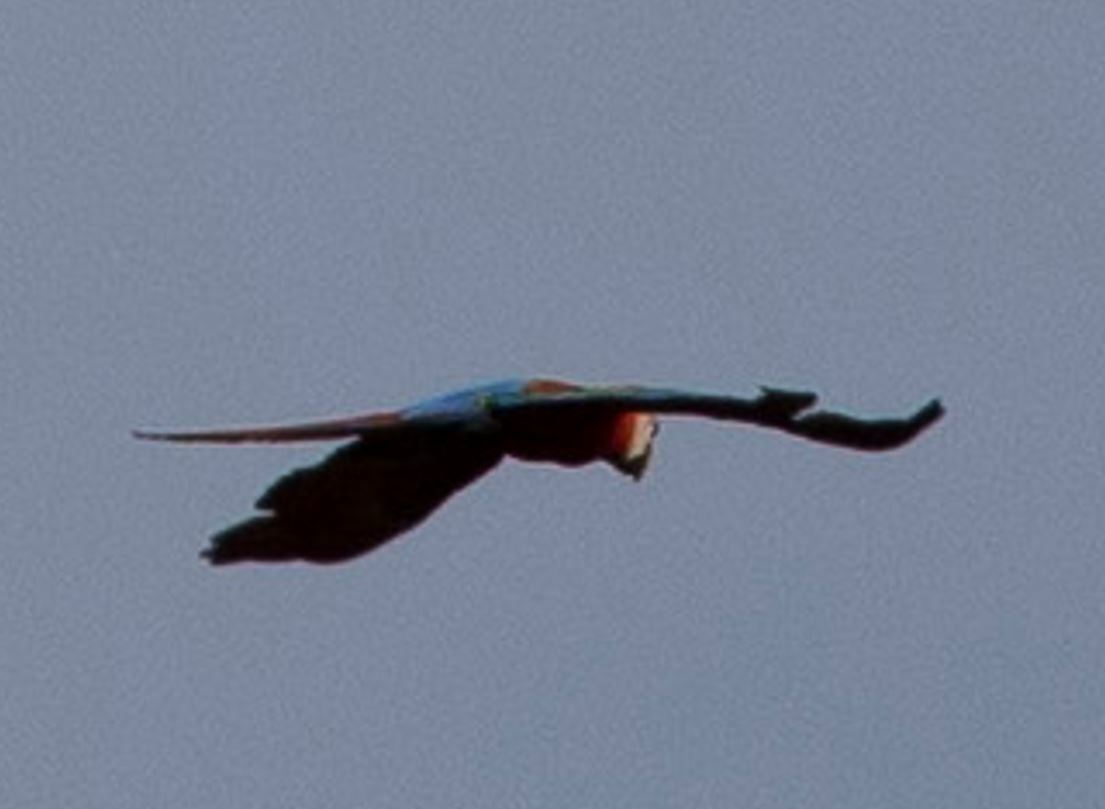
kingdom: Animalia
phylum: Chordata
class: Aves
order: Psittaciformes
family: Psittacidae
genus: Ara
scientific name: Ara chloropterus
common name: Red-and-green macaw
